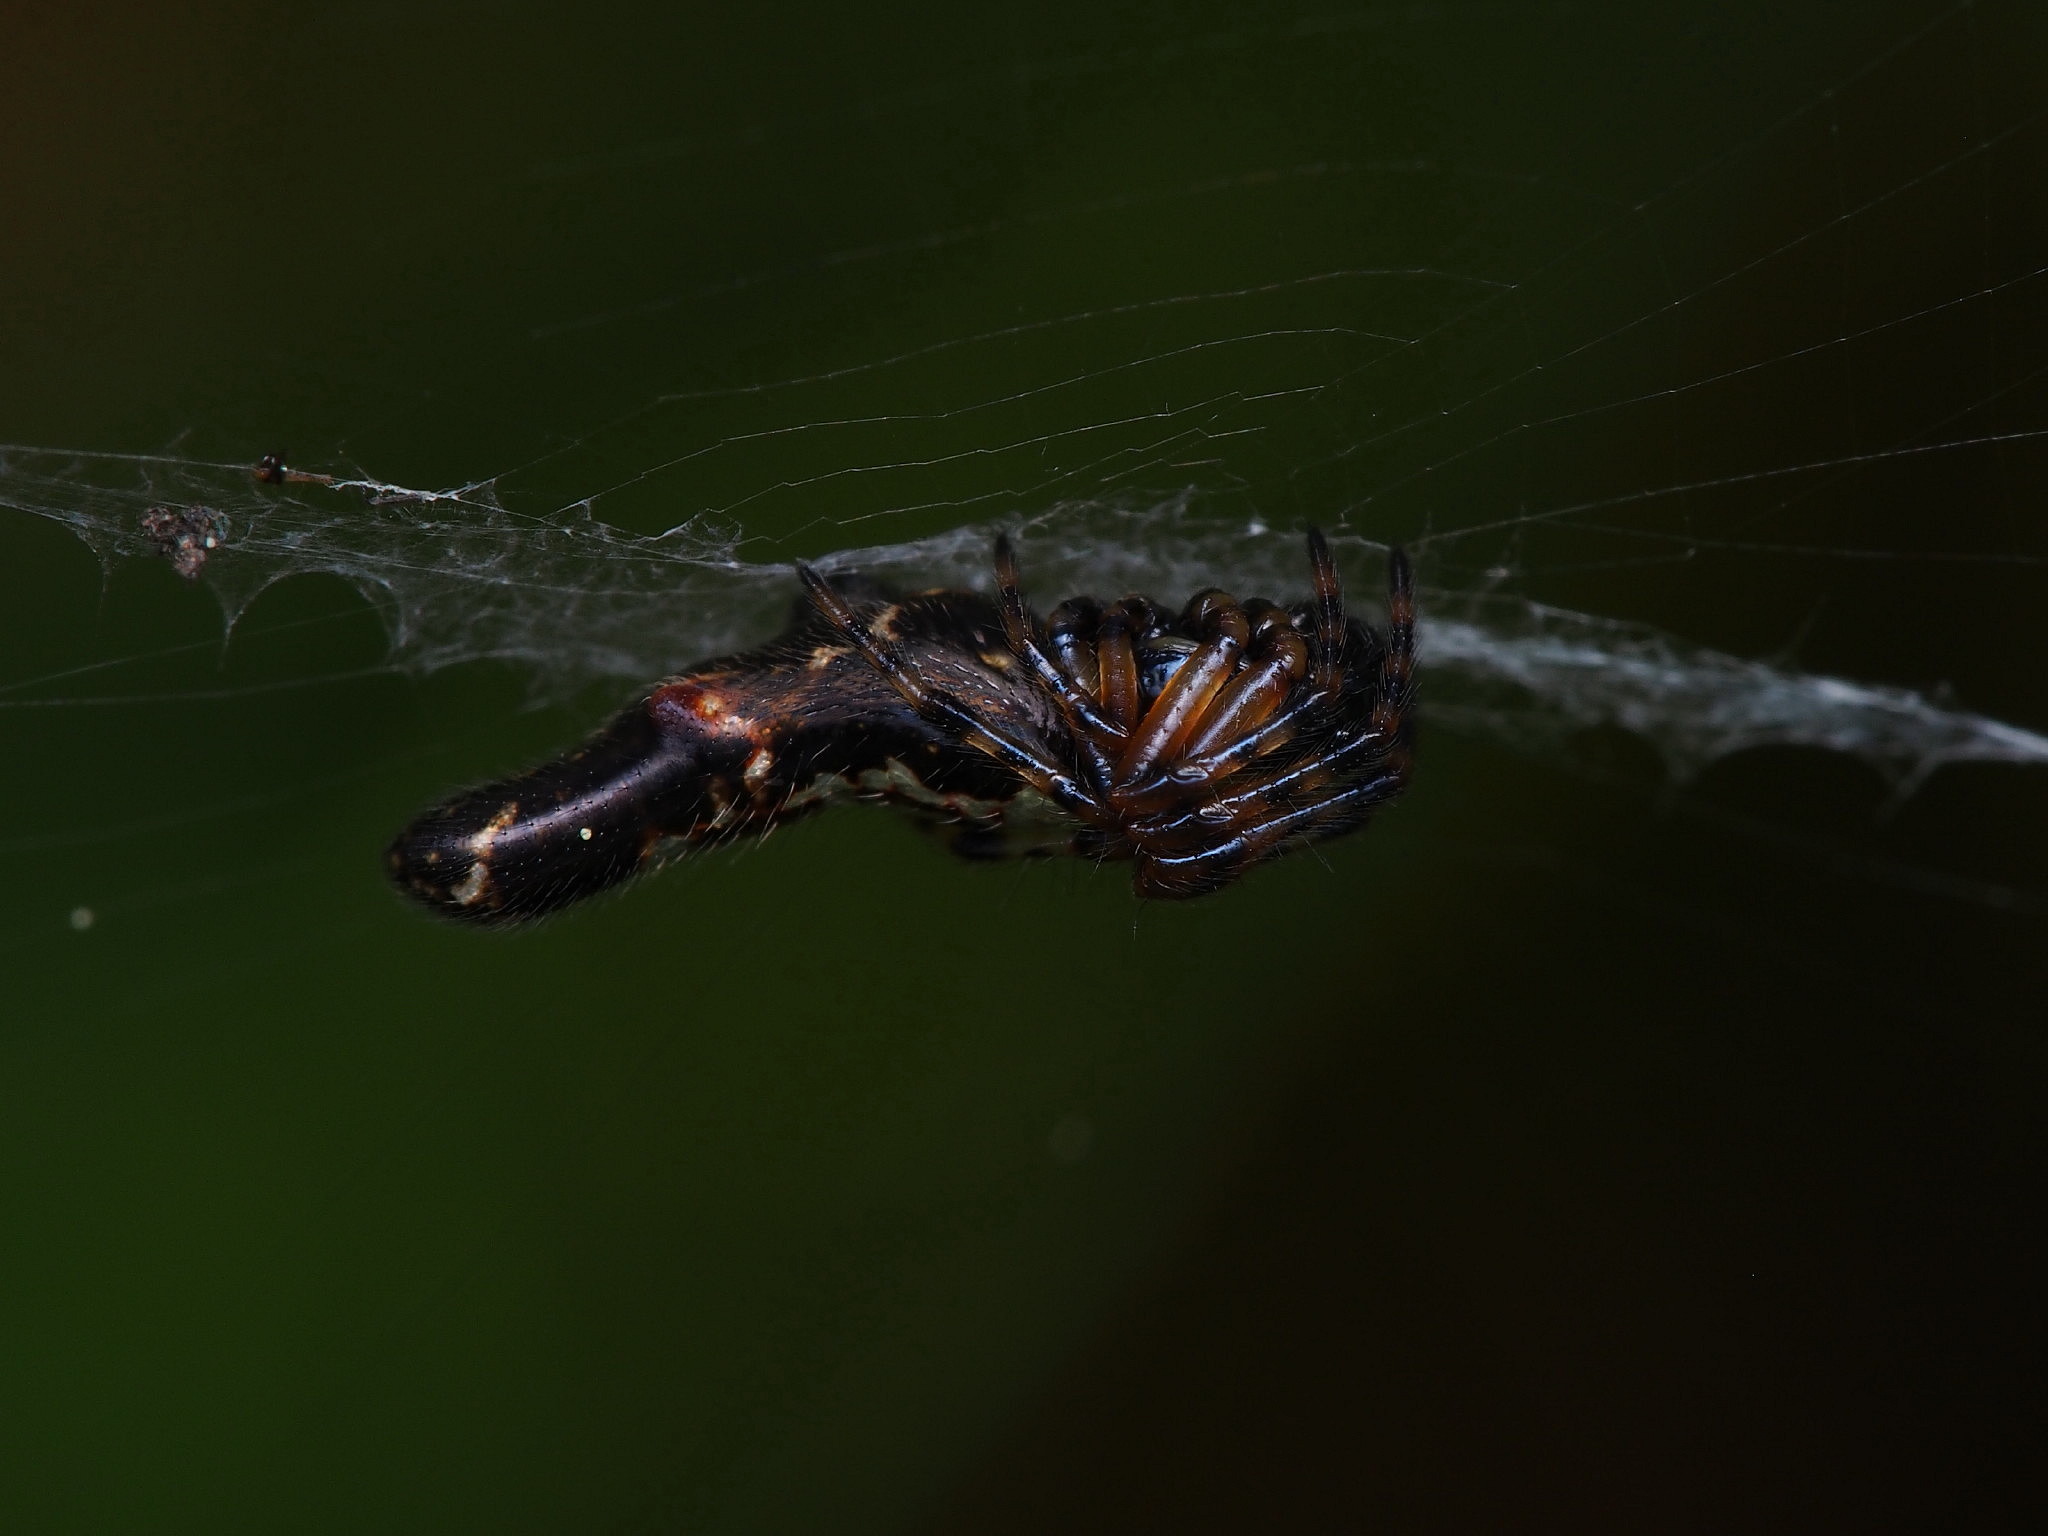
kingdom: Animalia
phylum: Arthropoda
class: Arachnida
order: Araneae
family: Araneidae
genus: Cyclosa
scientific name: Cyclosa trilobata
